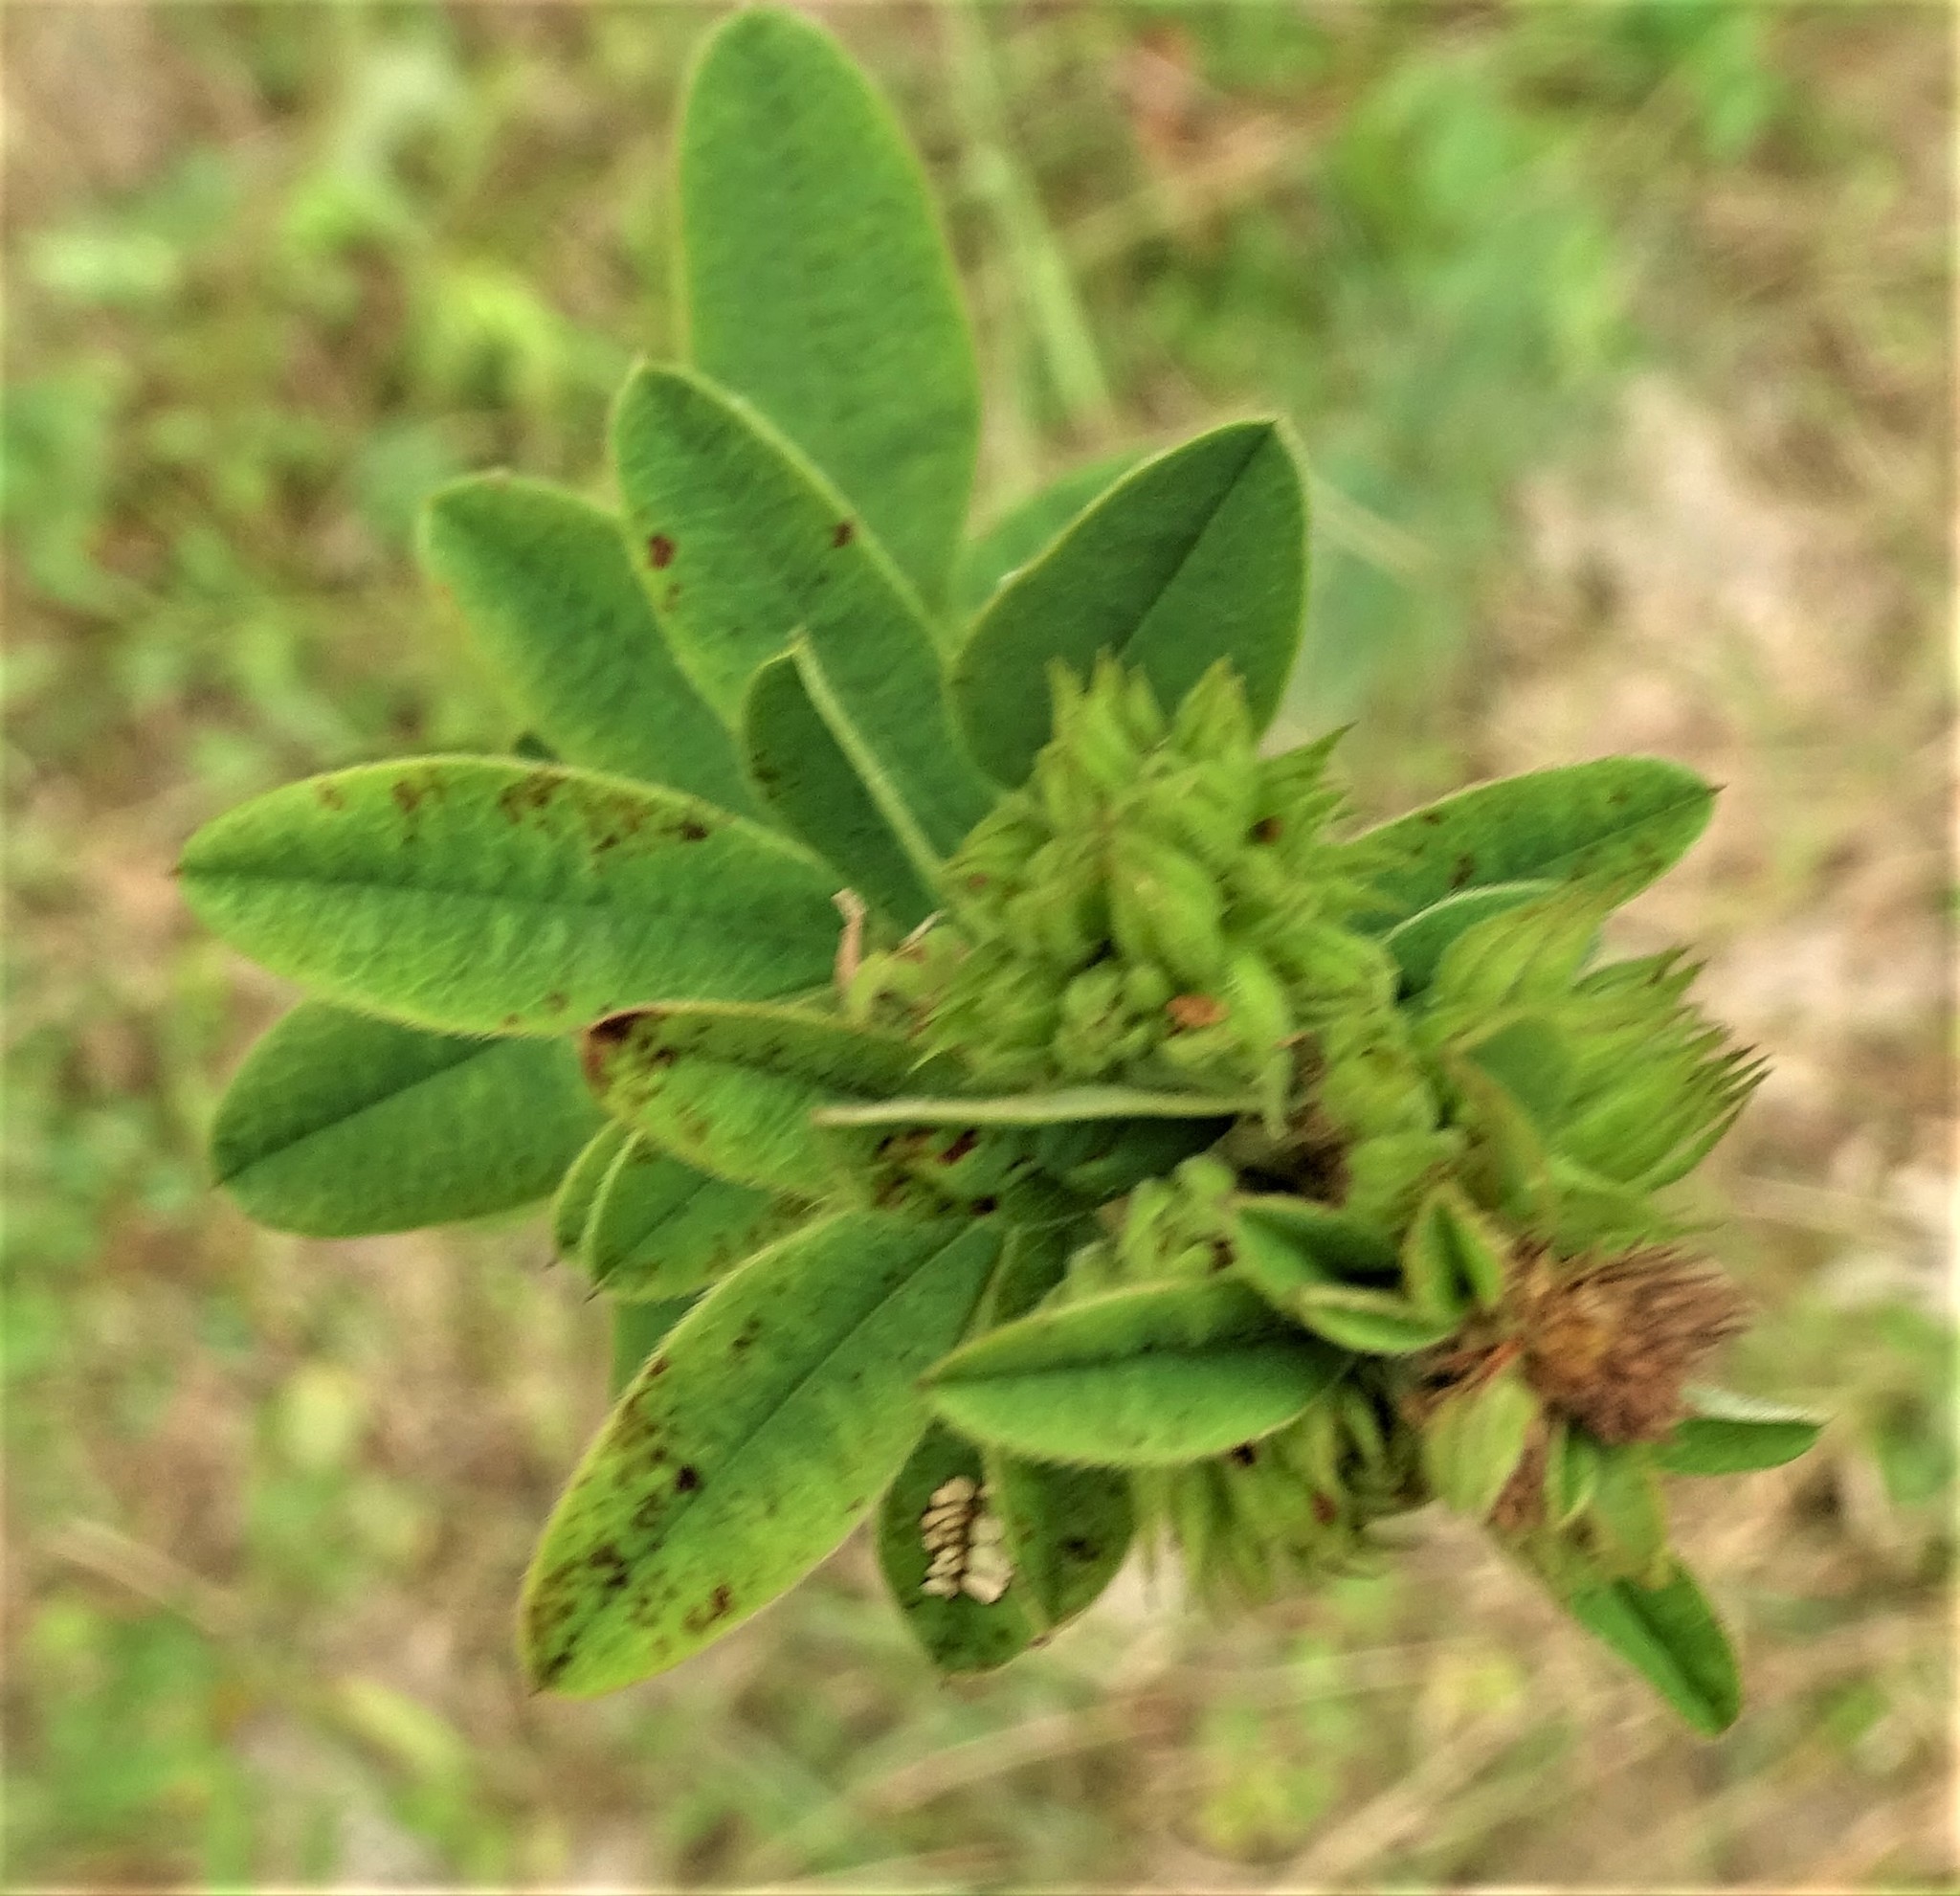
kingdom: Plantae
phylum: Tracheophyta
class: Magnoliopsida
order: Fabales
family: Fabaceae
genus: Lespedeza
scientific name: Lespedeza capitata
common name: Dusty clover
